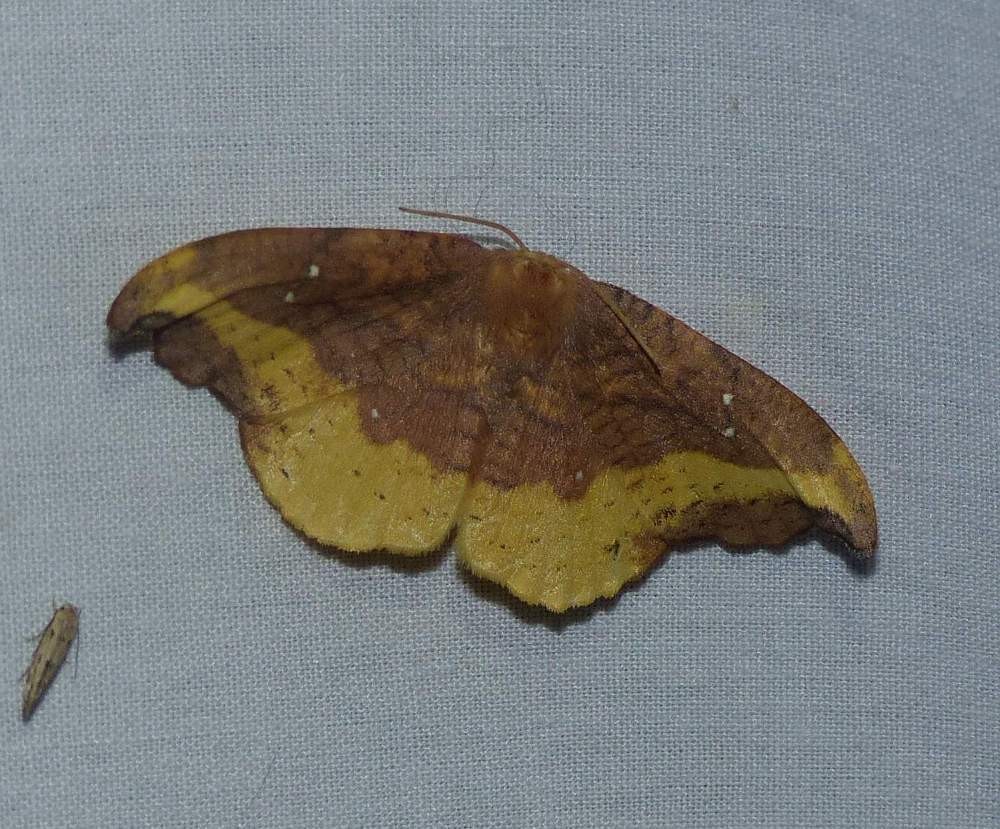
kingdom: Animalia
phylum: Arthropoda
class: Insecta
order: Lepidoptera
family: Drepanidae
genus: Oreta
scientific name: Oreta rosea
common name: Rose hooktip
